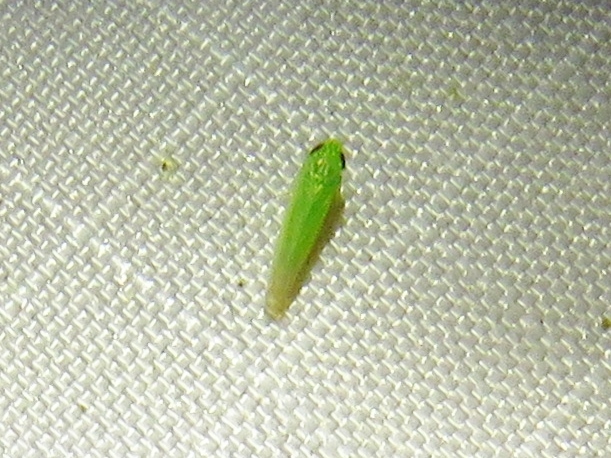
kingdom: Animalia
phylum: Arthropoda
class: Insecta
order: Hemiptera
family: Cicadellidae
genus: Empoasca
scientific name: Empoasca fabae
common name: Potato leafhopper
